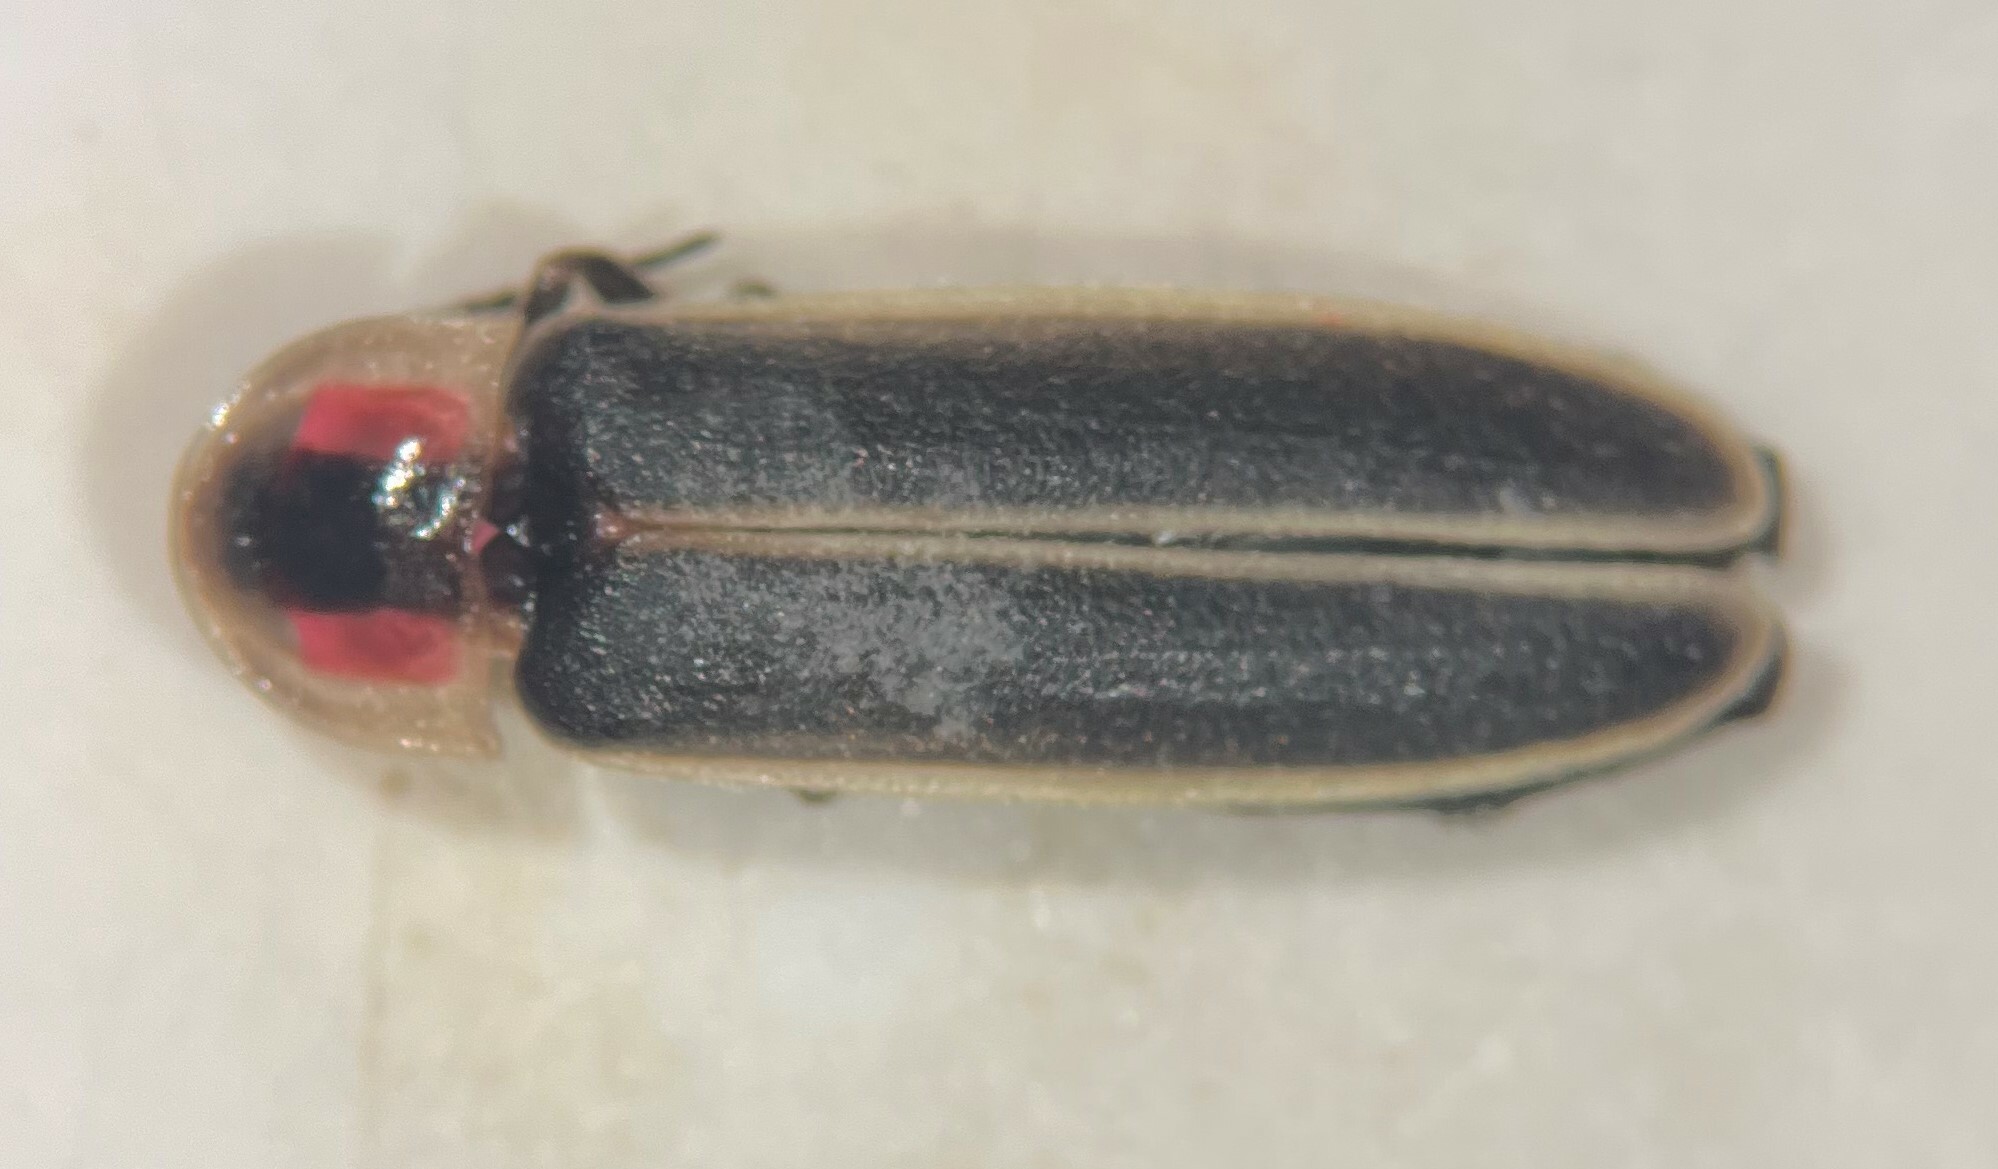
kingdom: Animalia
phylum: Arthropoda
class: Insecta
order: Coleoptera
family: Lampyridae
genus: Photinus
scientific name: Photinus consanguineus
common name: Consanguineous firefly
